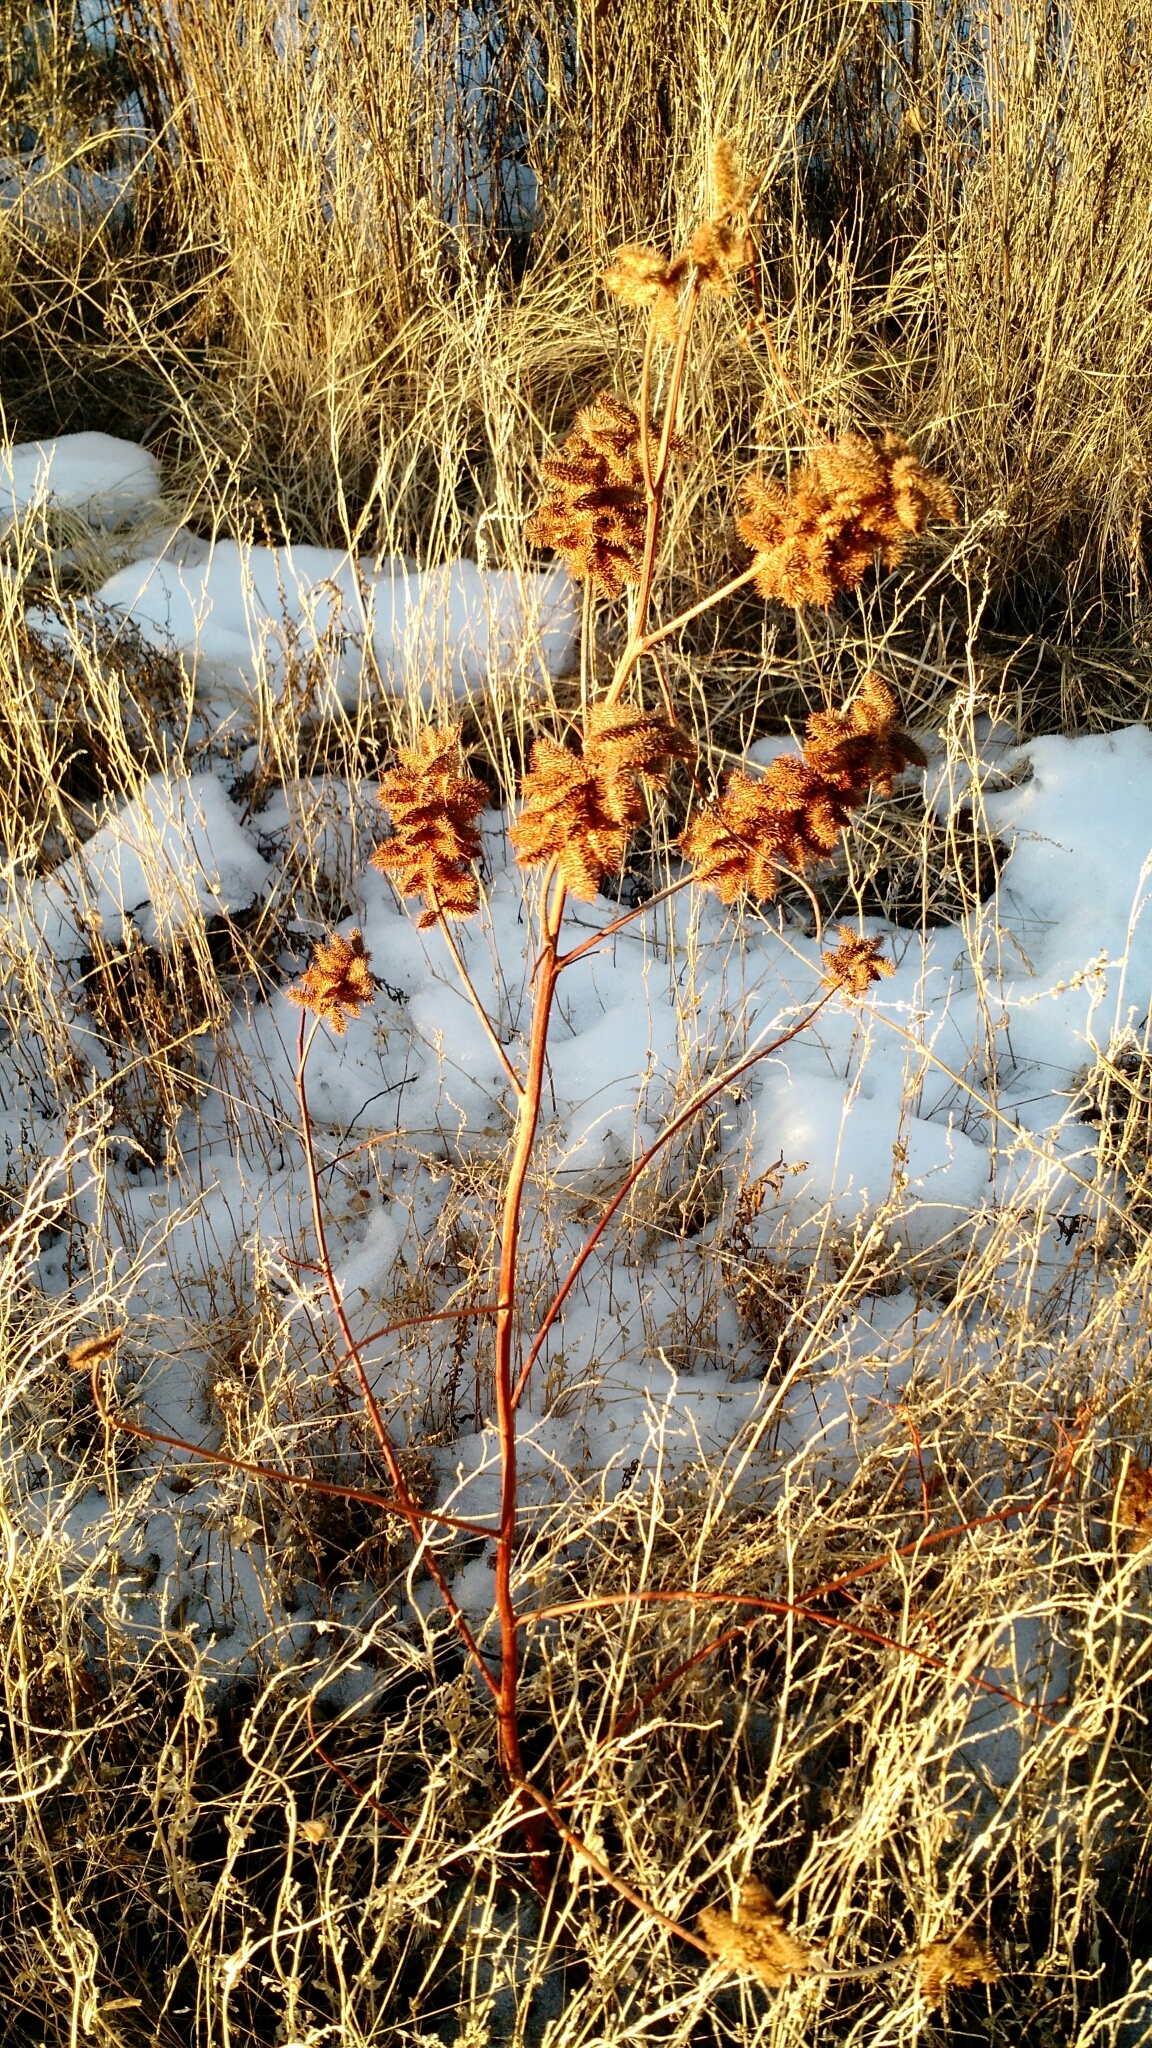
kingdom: Plantae
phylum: Tracheophyta
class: Magnoliopsida
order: Fabales
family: Fabaceae
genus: Glycyrrhiza
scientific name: Glycyrrhiza lepidota
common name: American liquorice
